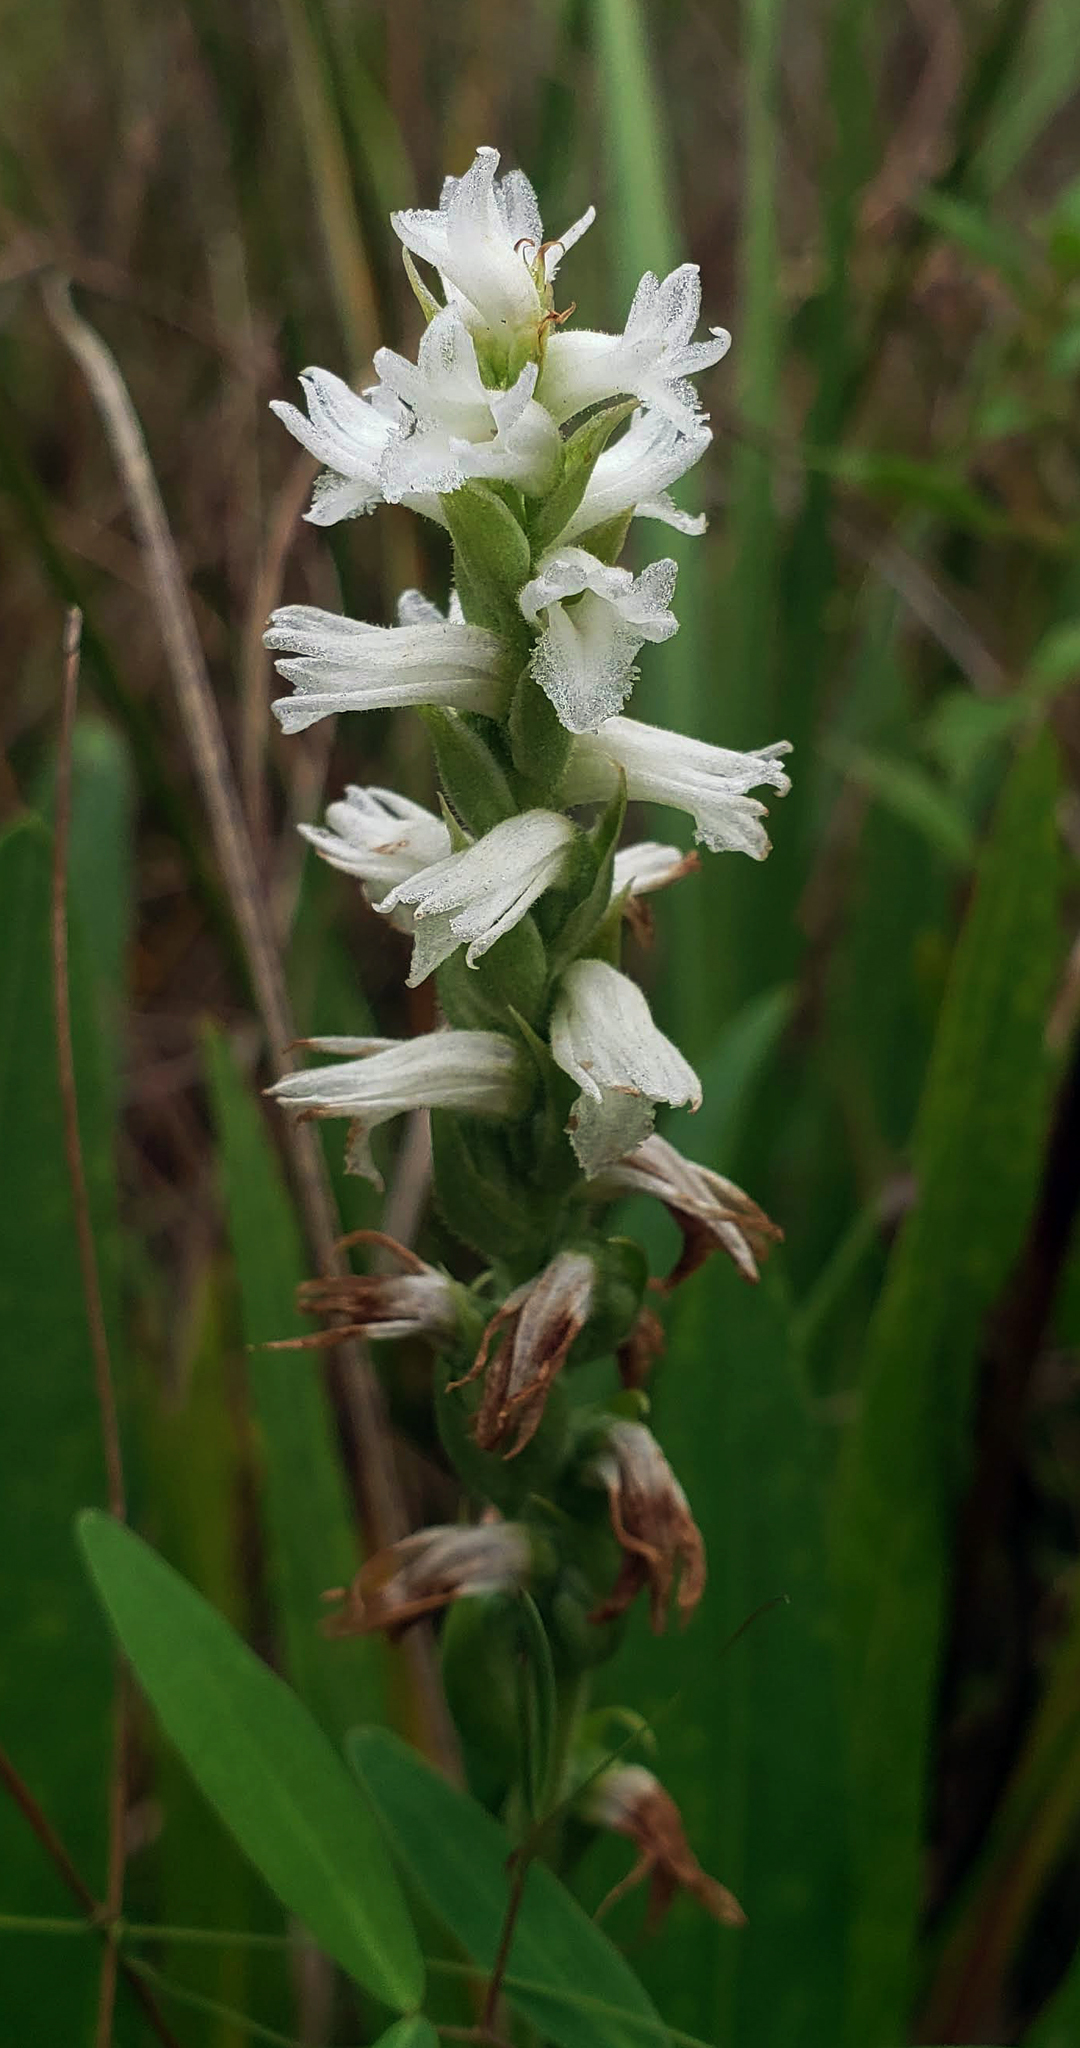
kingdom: Plantae
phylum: Tracheophyta
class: Liliopsida
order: Asparagales
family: Orchidaceae
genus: Spiranthes
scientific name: Spiranthes incurva
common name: Sphinx ladies'-tresses
